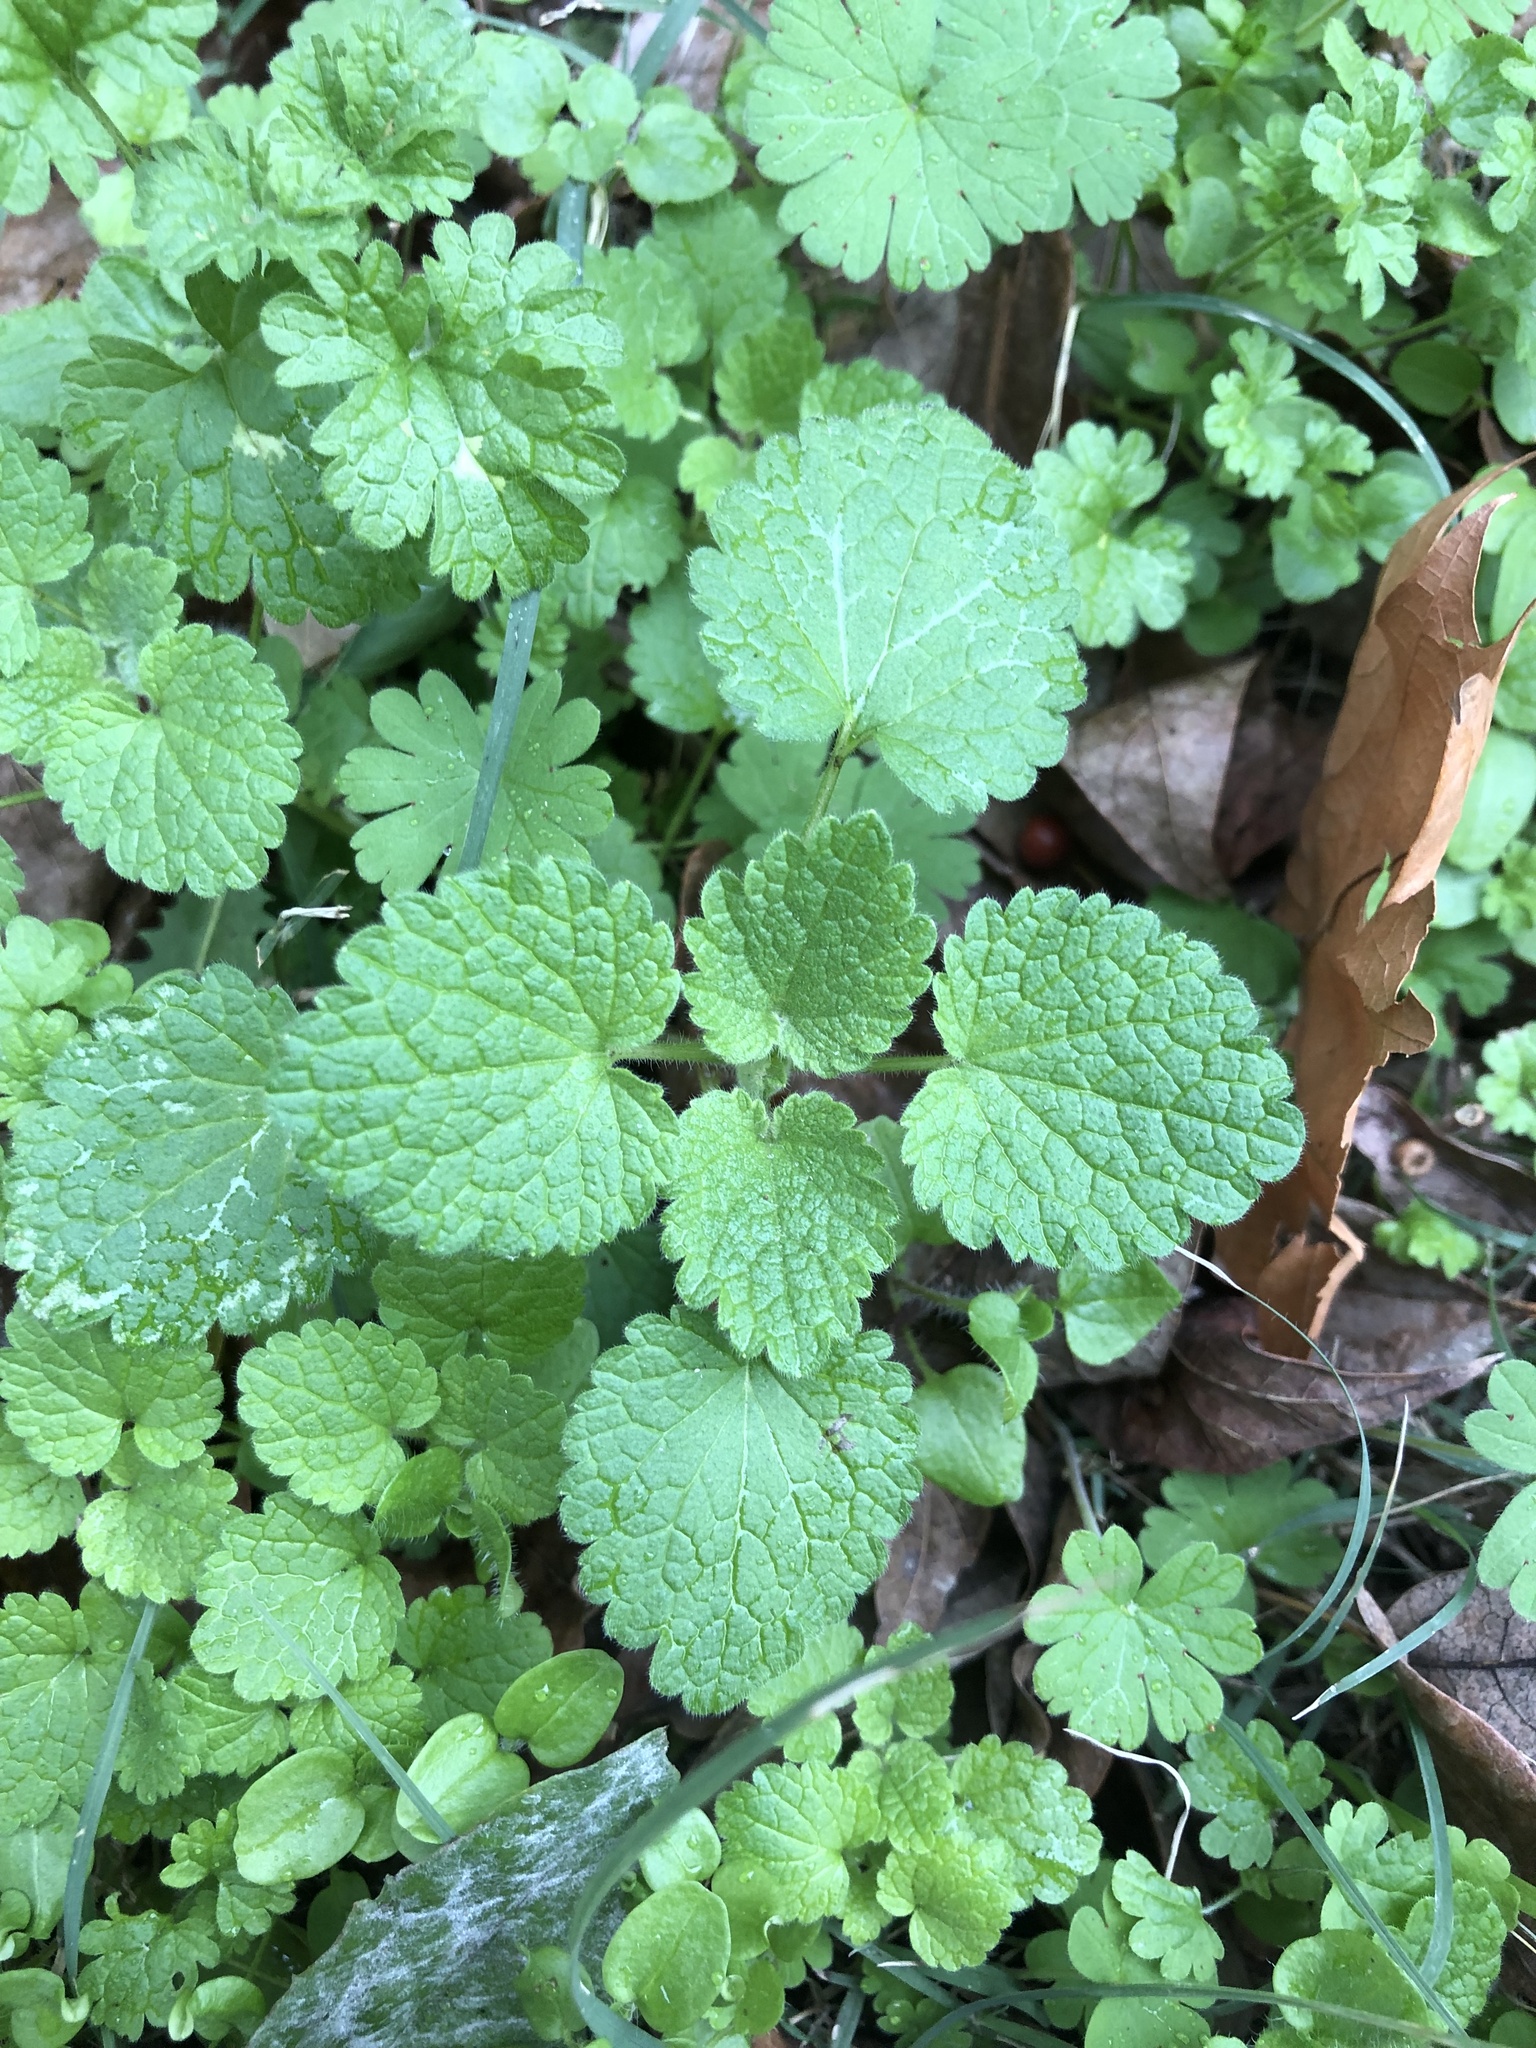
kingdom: Plantae
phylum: Tracheophyta
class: Magnoliopsida
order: Lamiales
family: Lamiaceae
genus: Lamium
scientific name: Lamium purpureum
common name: Red dead-nettle
